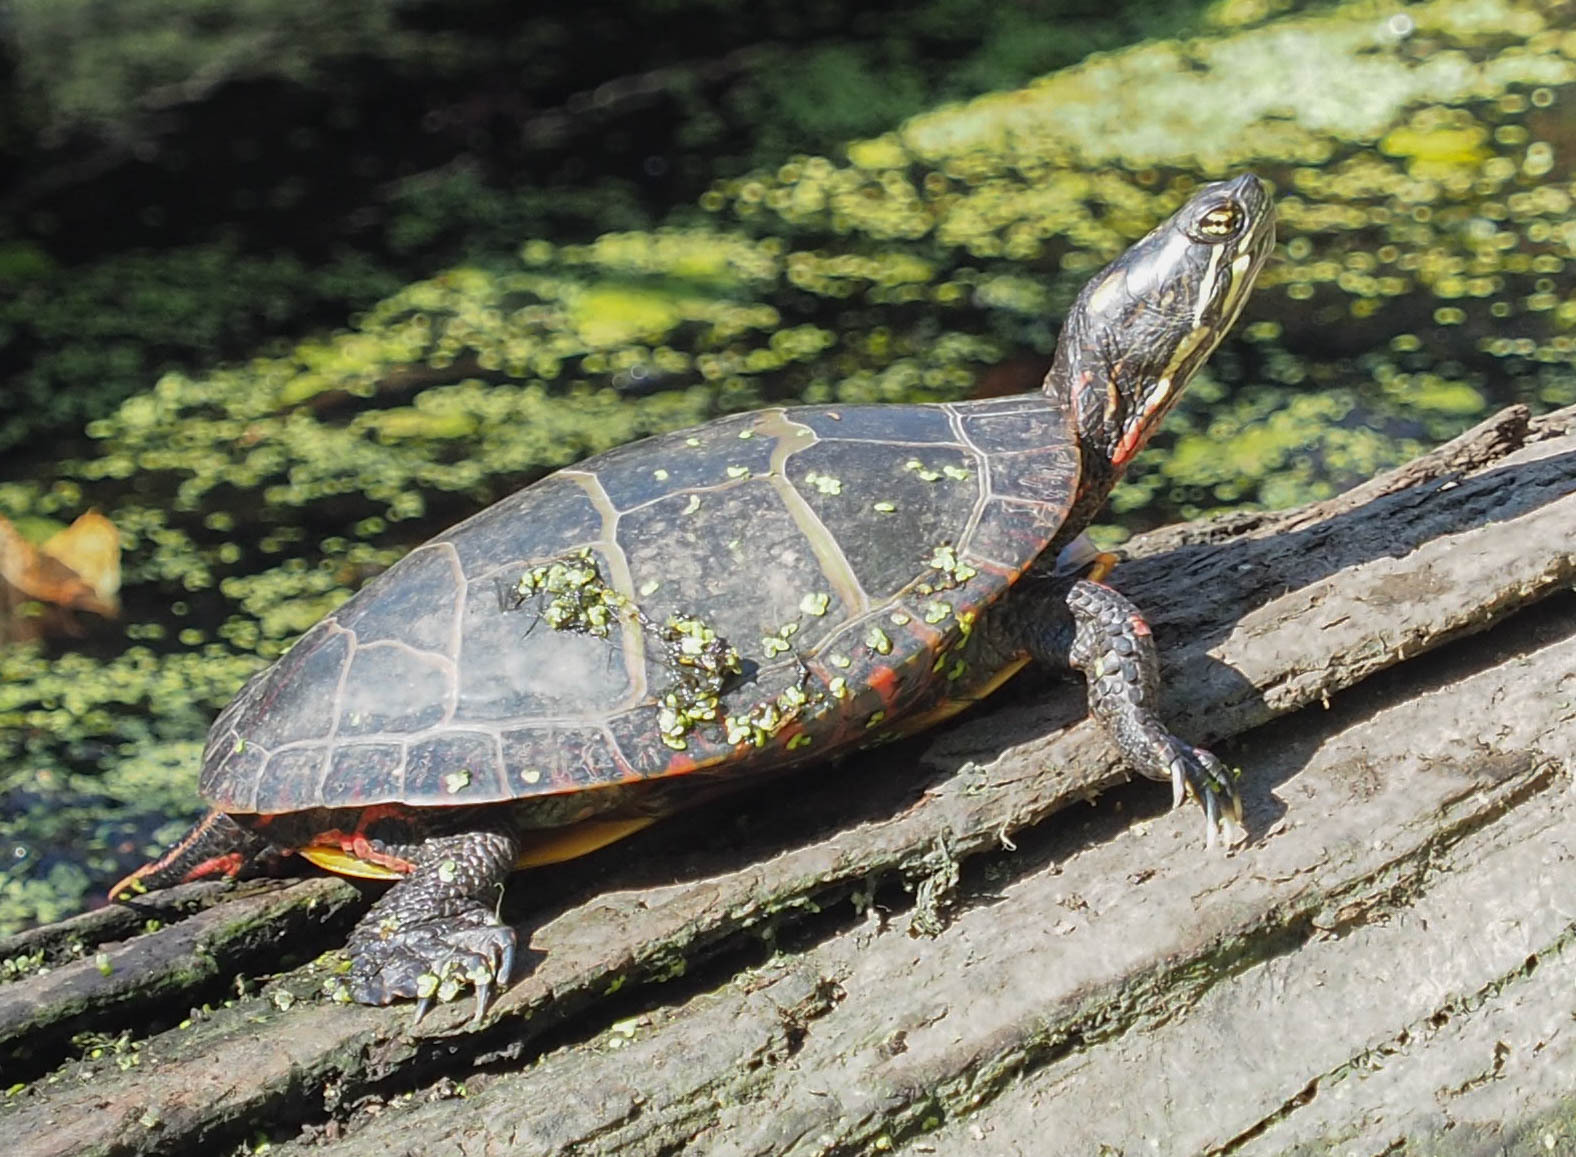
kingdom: Animalia
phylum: Chordata
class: Testudines
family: Emydidae
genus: Chrysemys
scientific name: Chrysemys picta
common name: Painted turtle
